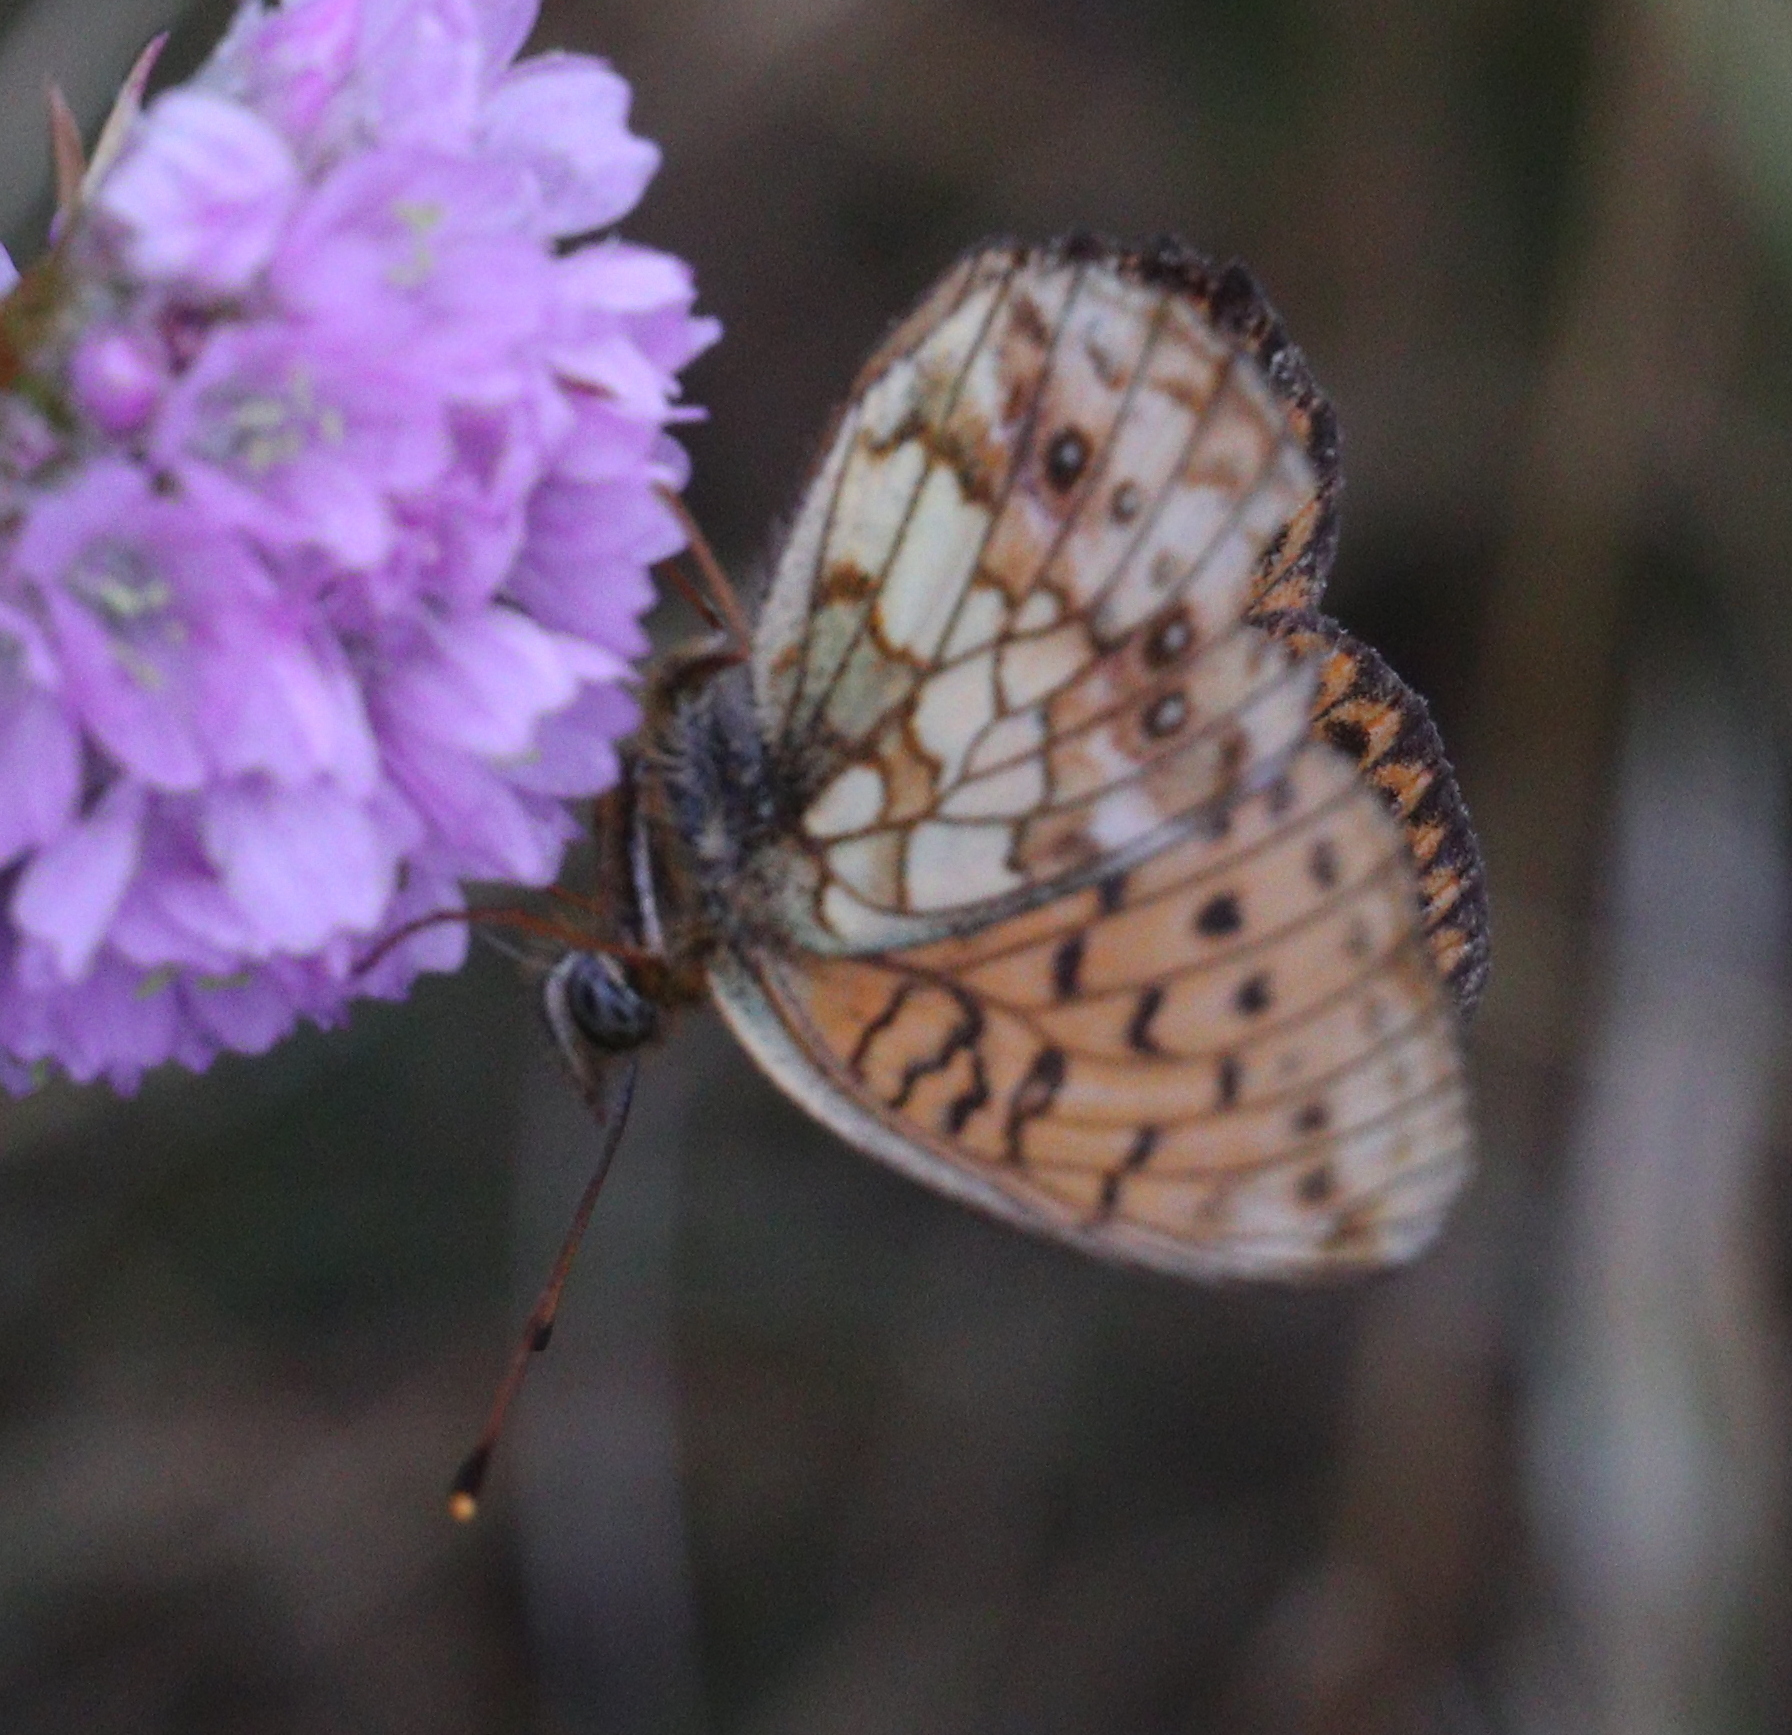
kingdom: Animalia
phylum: Arthropoda
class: Insecta
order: Lepidoptera
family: Nymphalidae
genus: Brenthis
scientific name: Brenthis ino
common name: Lesser marbled fritillary
